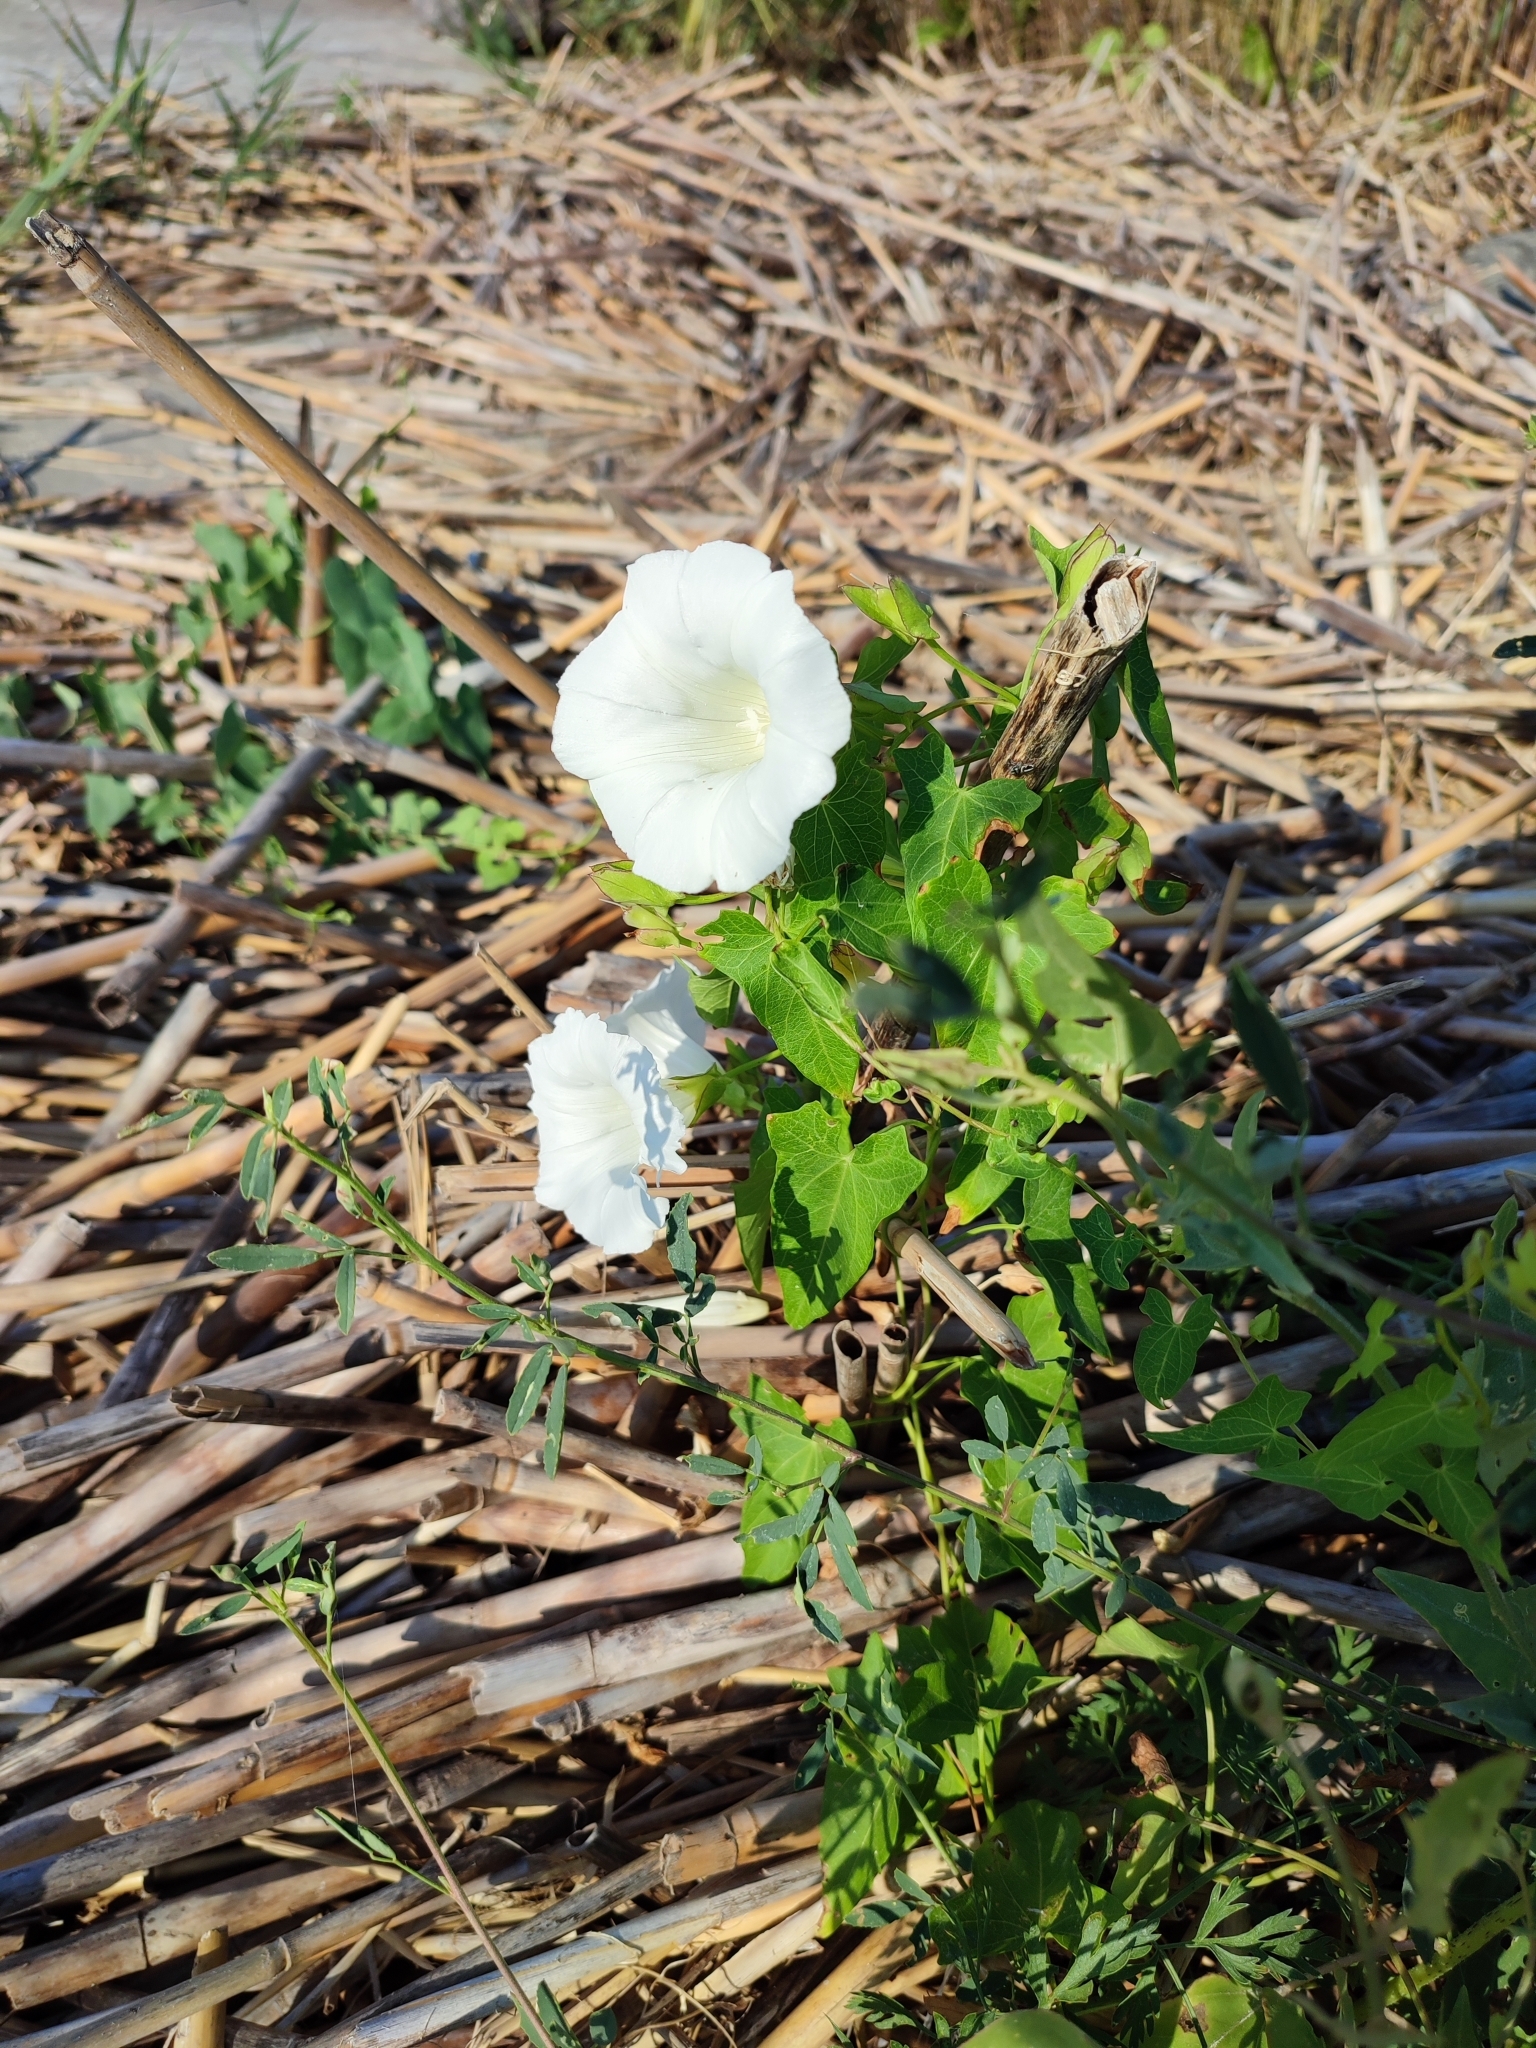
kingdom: Plantae
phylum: Tracheophyta
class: Magnoliopsida
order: Solanales
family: Convolvulaceae
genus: Calystegia
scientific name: Calystegia sepium
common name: Hedge bindweed
